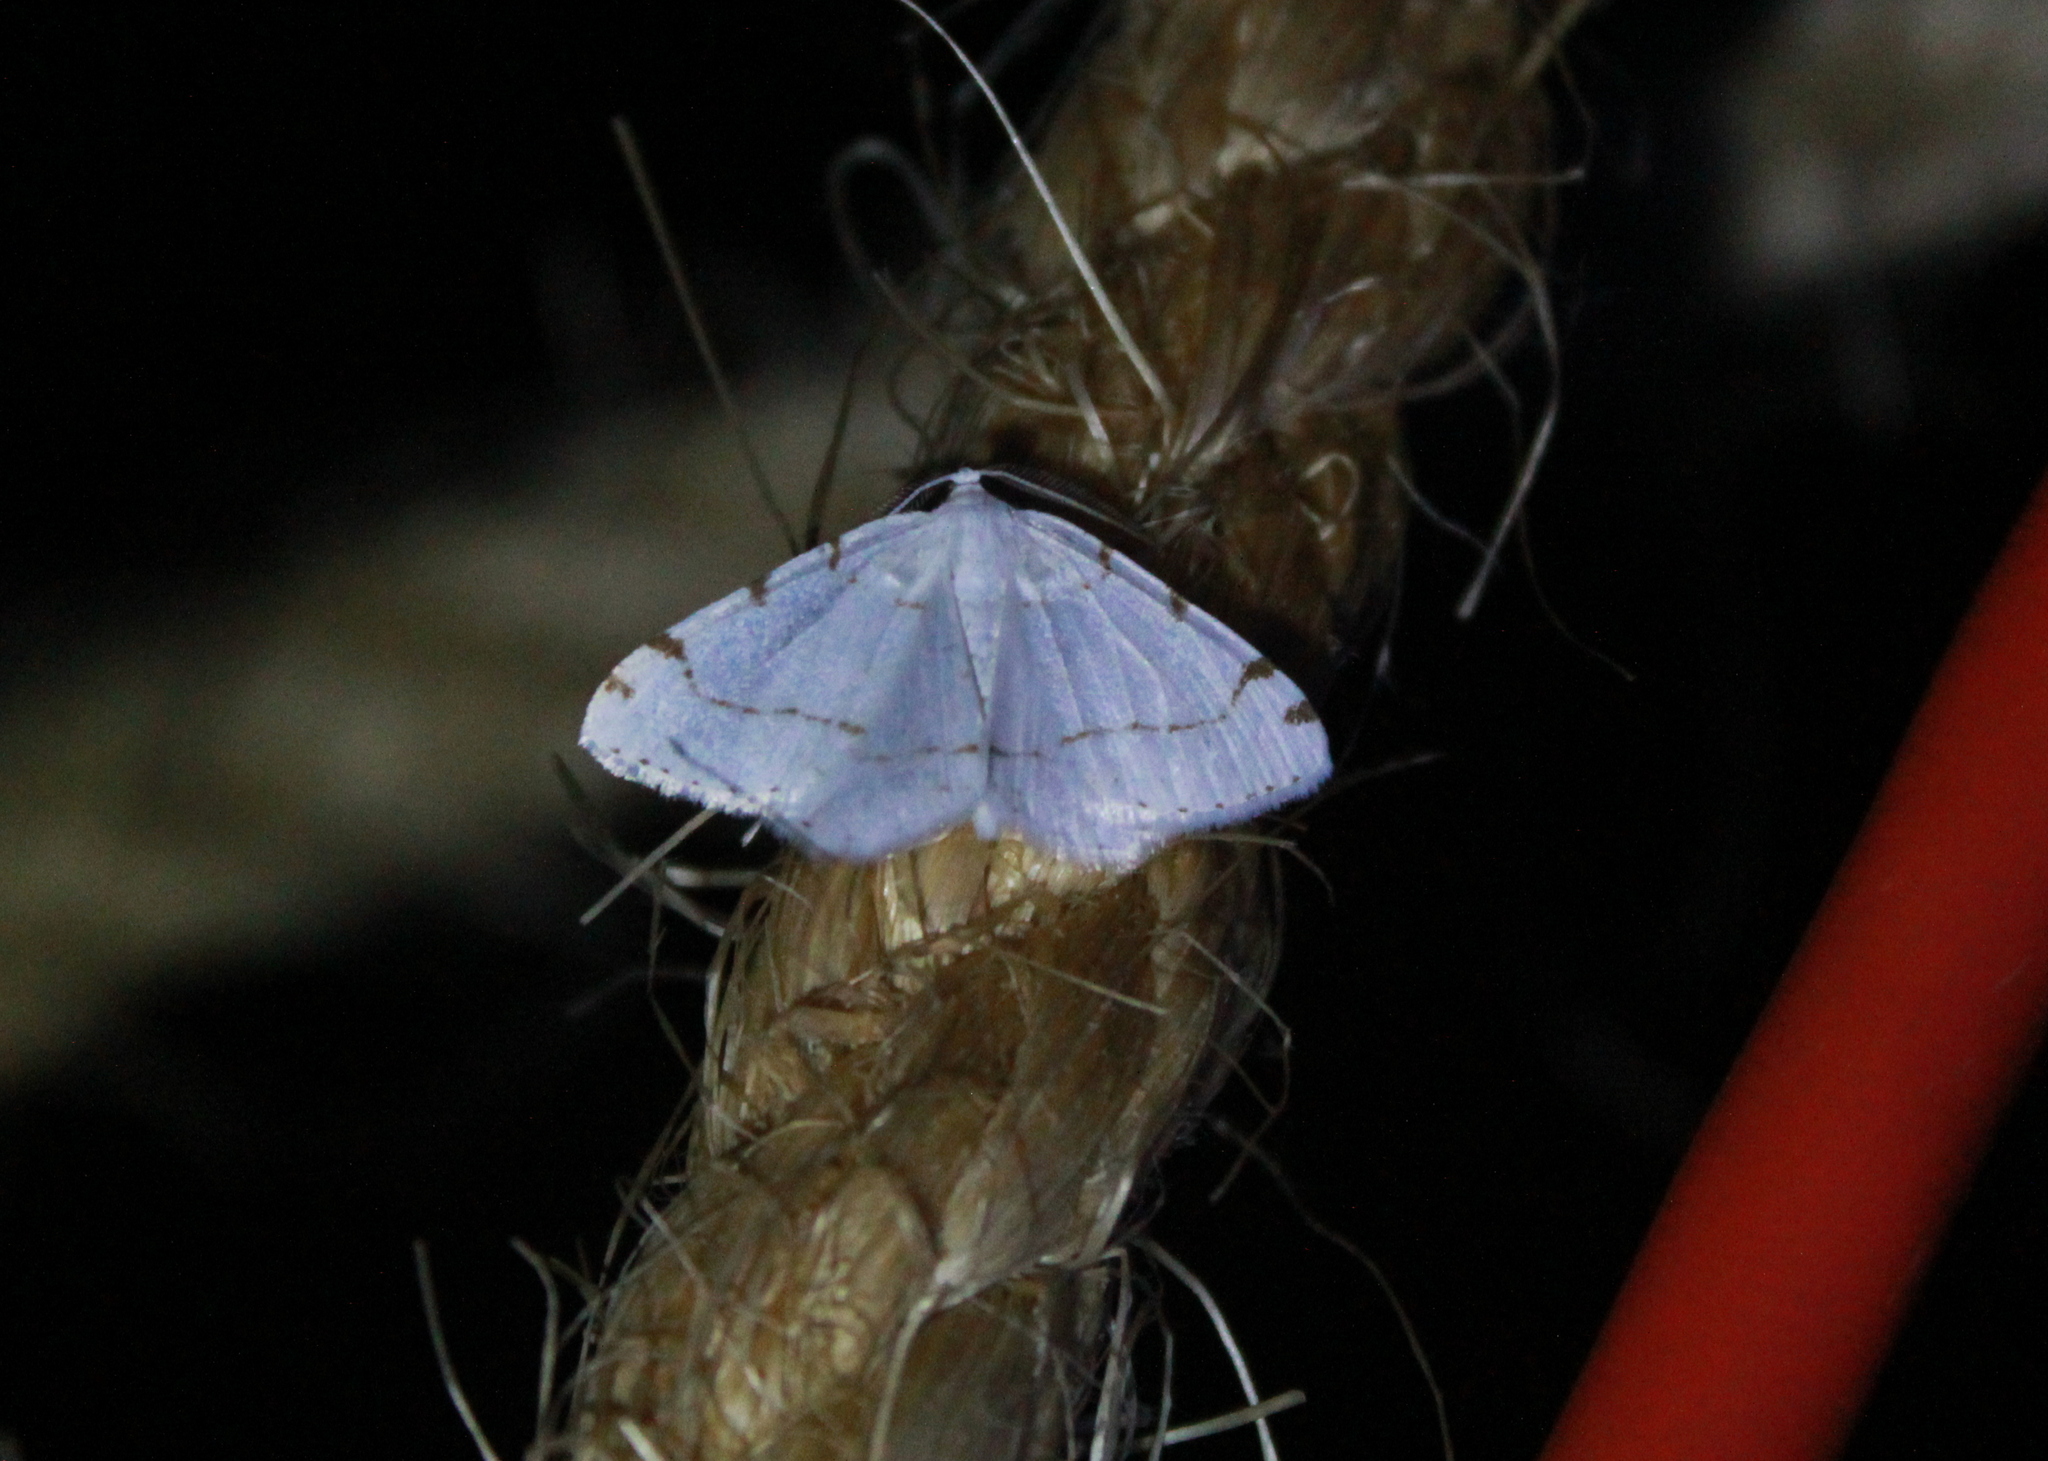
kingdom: Animalia
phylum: Arthropoda
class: Insecta
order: Lepidoptera
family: Geometridae
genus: Macaria
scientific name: Macaria pustularia
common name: Lesser maple spanworm moth
